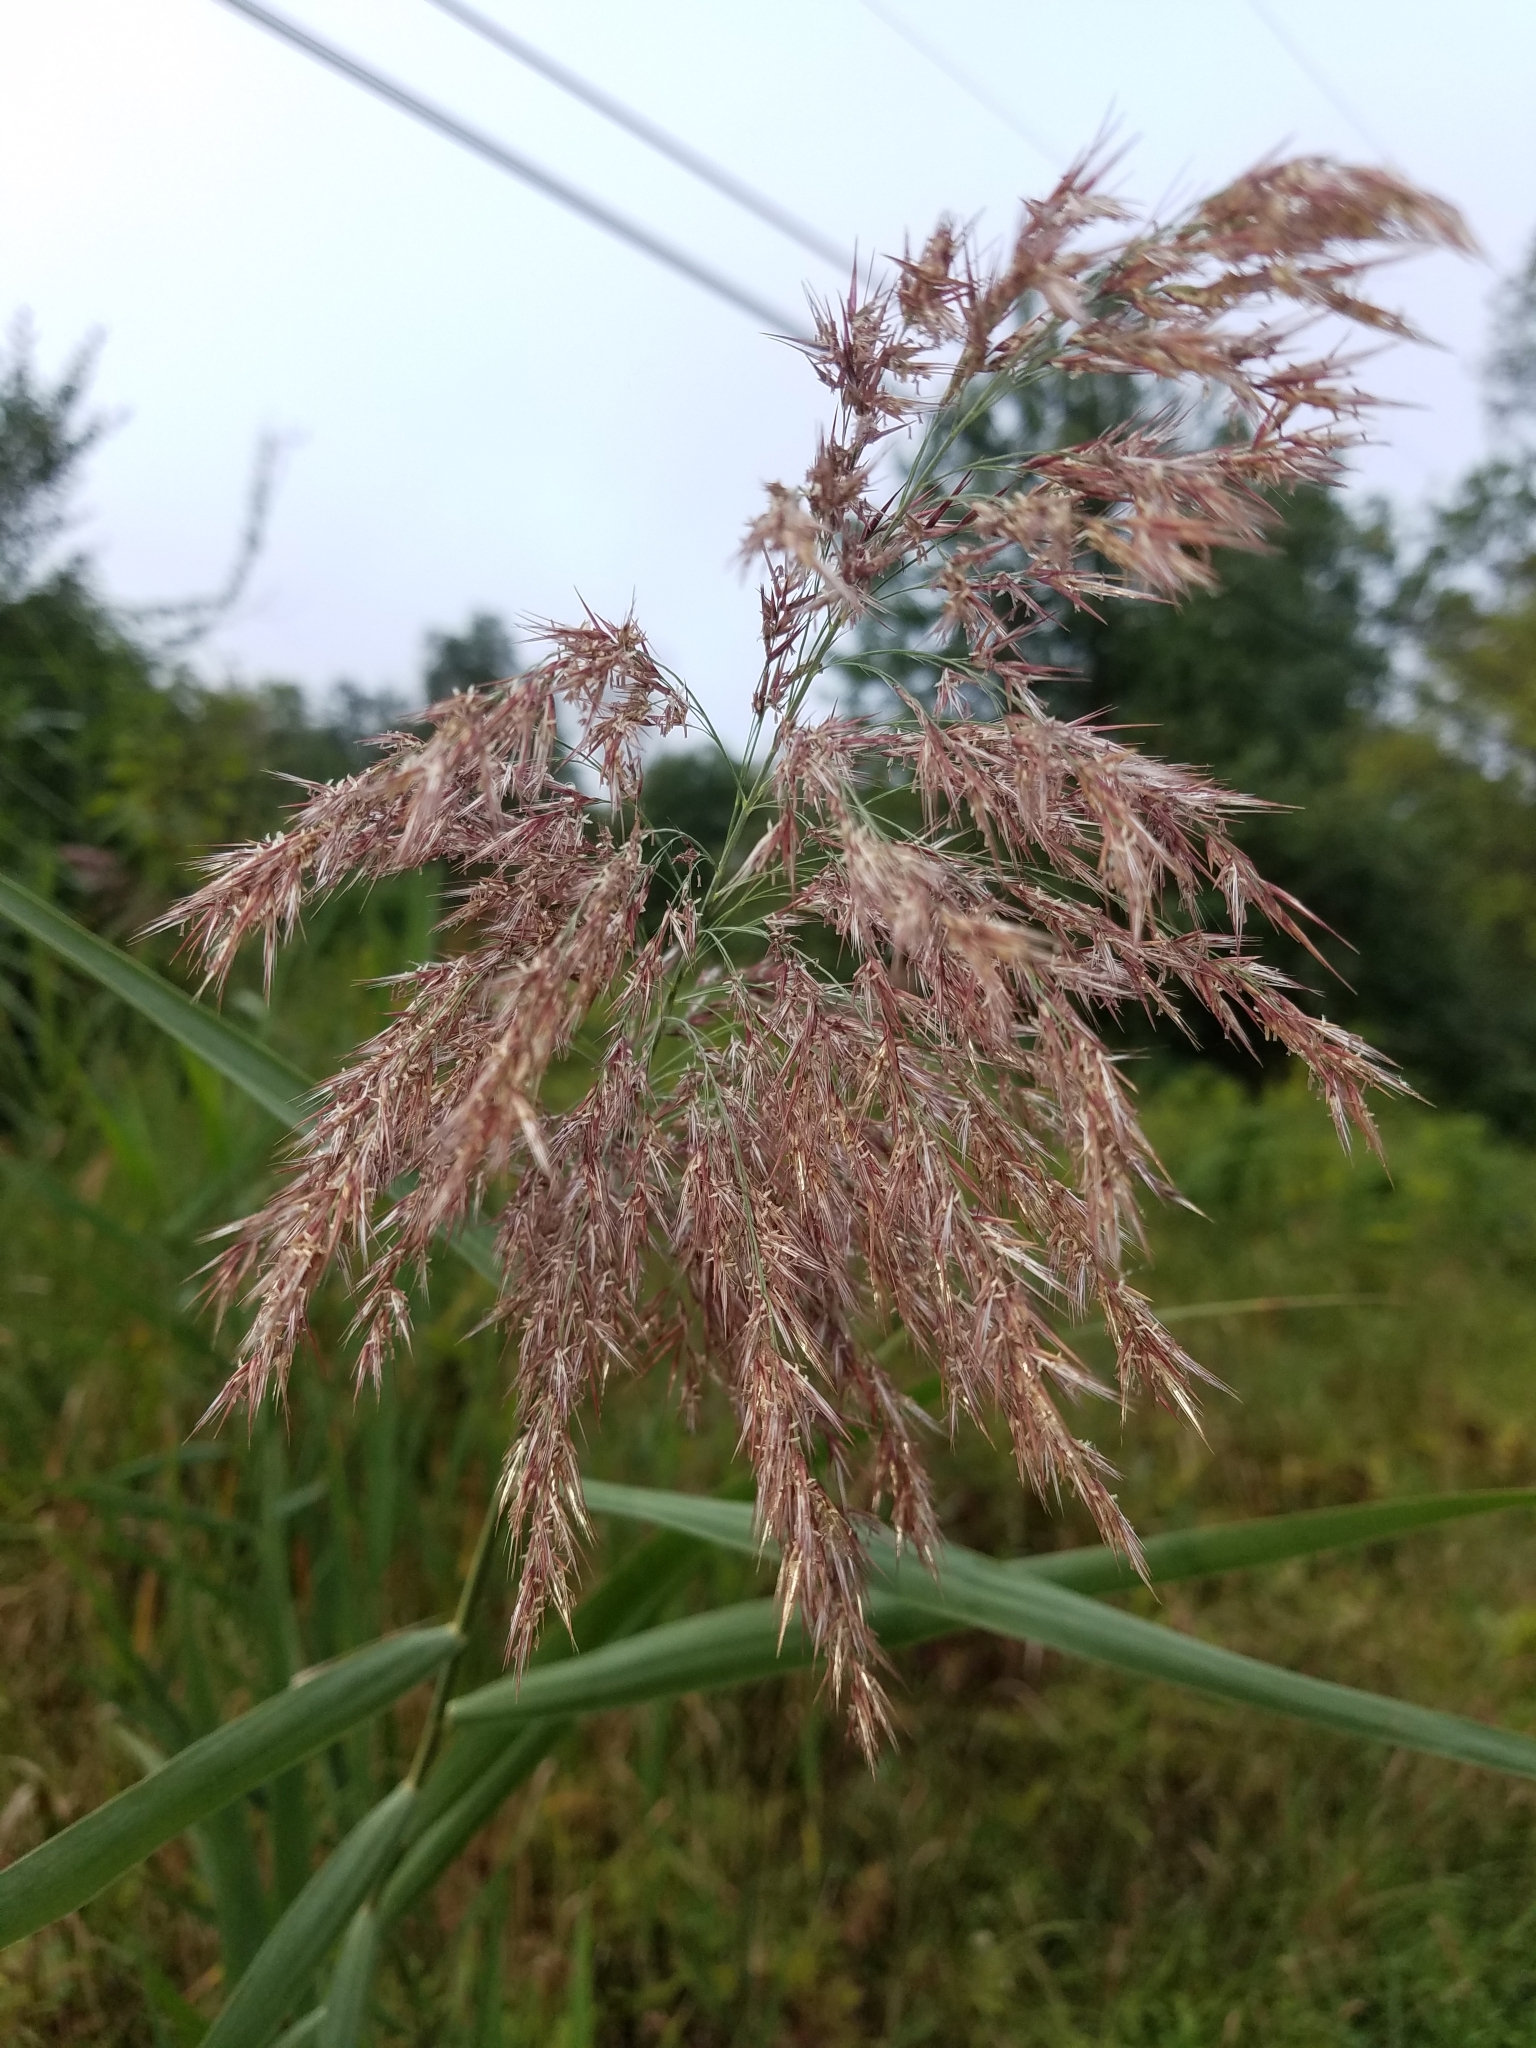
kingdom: Plantae
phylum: Tracheophyta
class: Liliopsida
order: Poales
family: Poaceae
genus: Phragmites
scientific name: Phragmites australis
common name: Common reed
